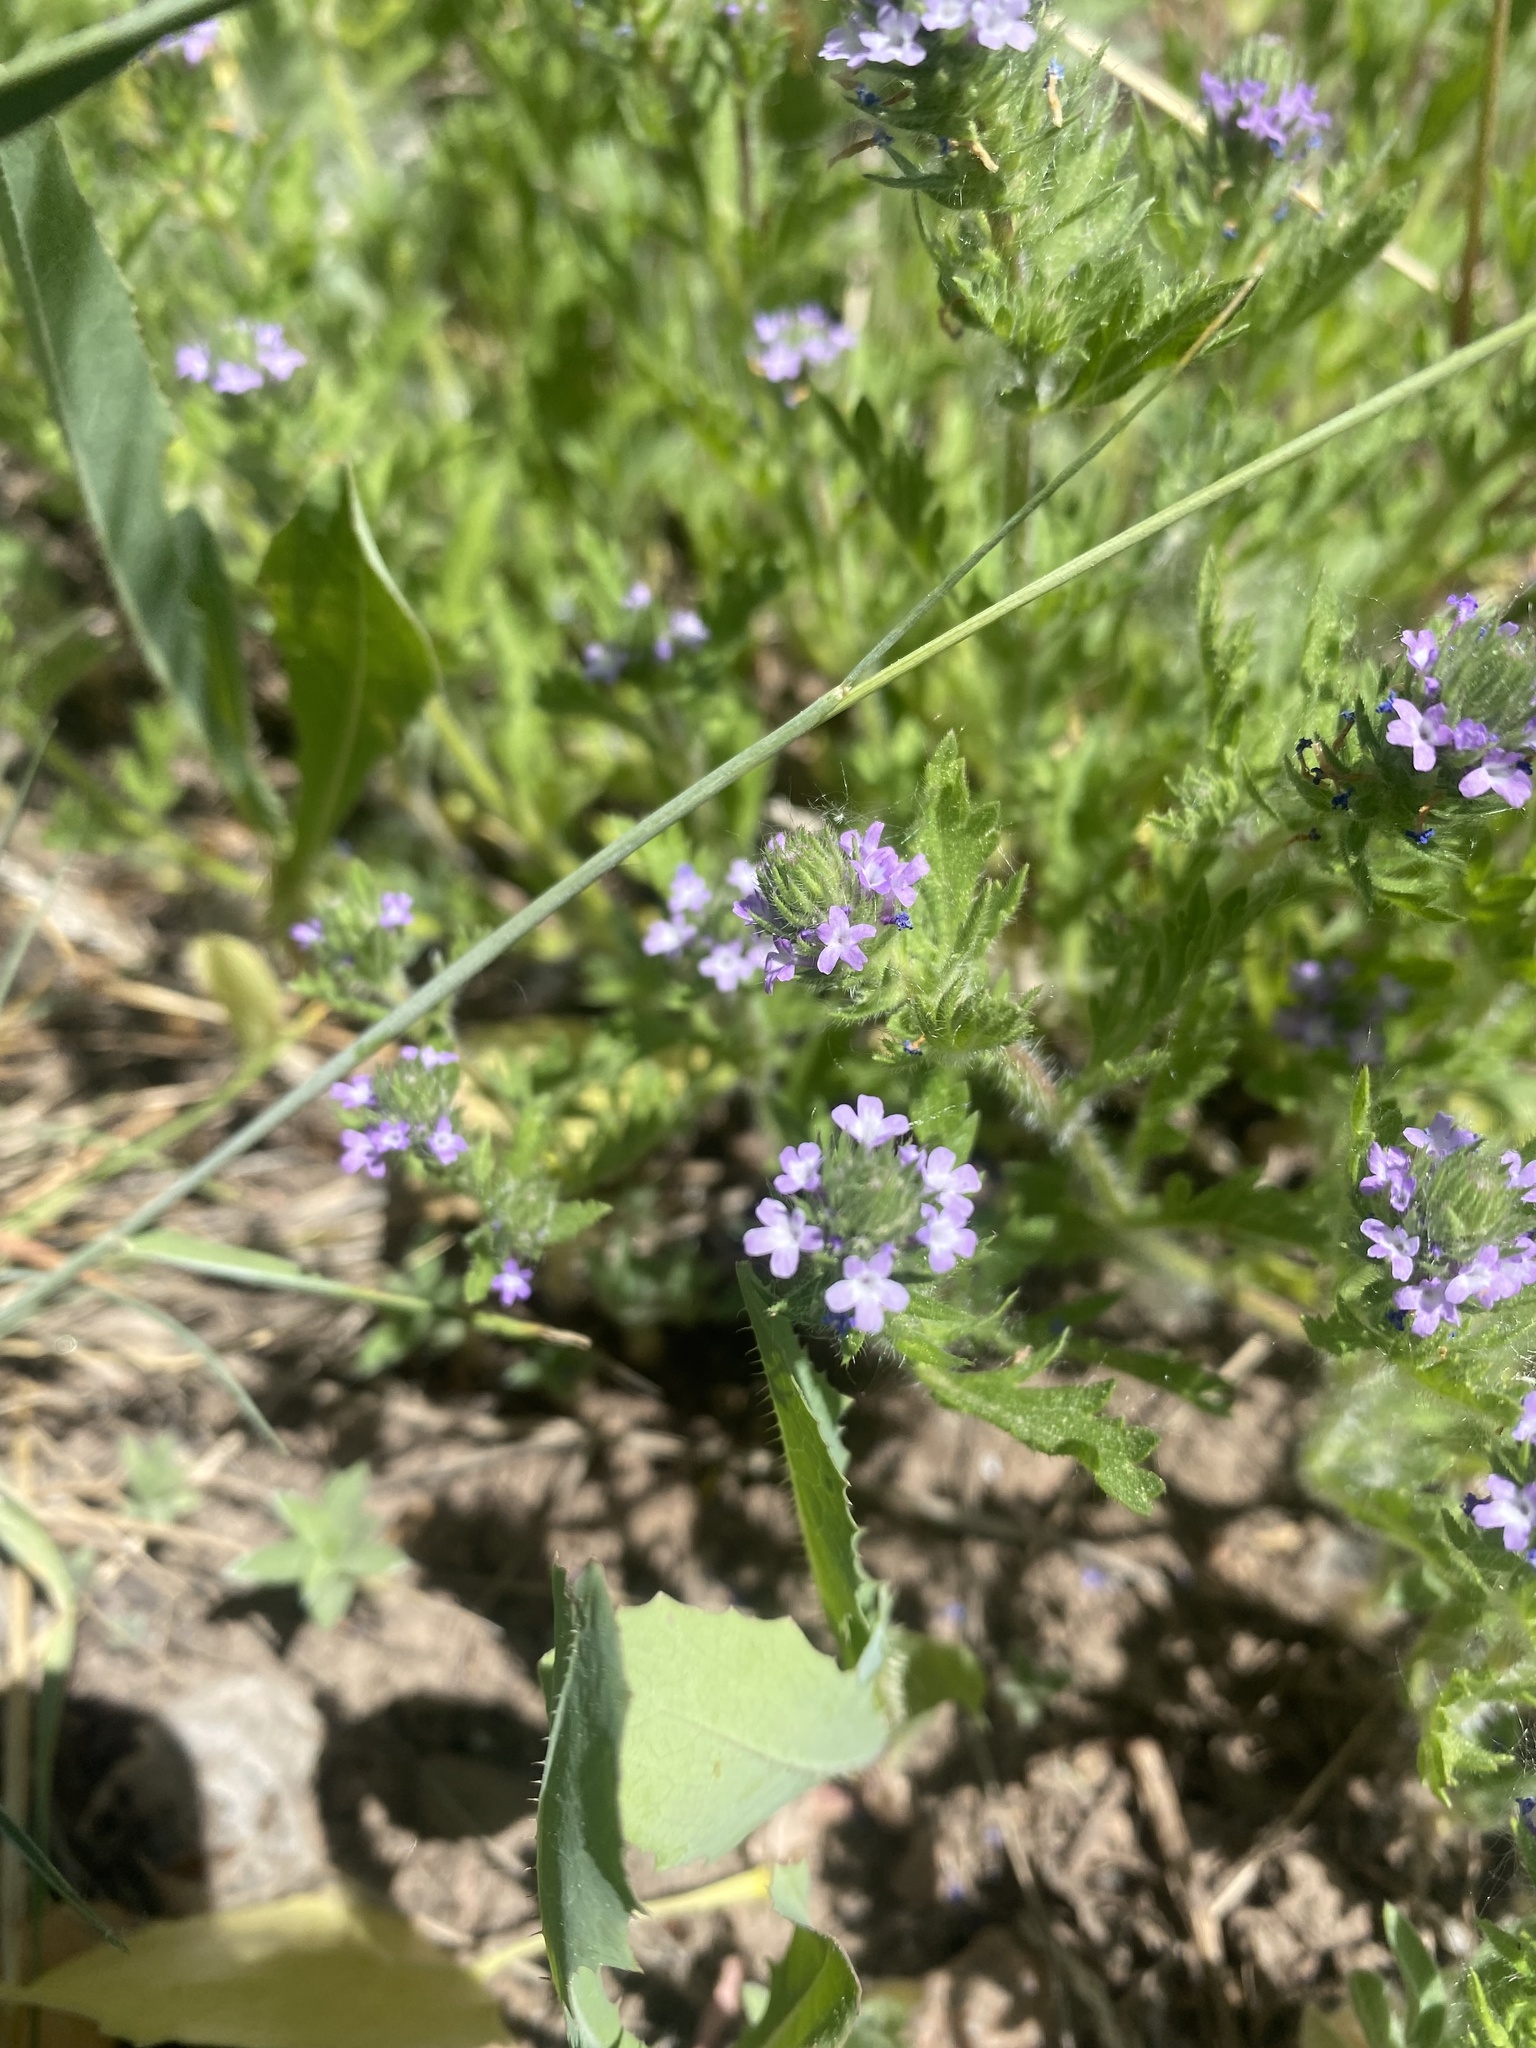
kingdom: Plantae
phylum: Tracheophyta
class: Magnoliopsida
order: Lamiales
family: Verbenaceae
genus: Verbena
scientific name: Verbena bracteata
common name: Bracted vervain
